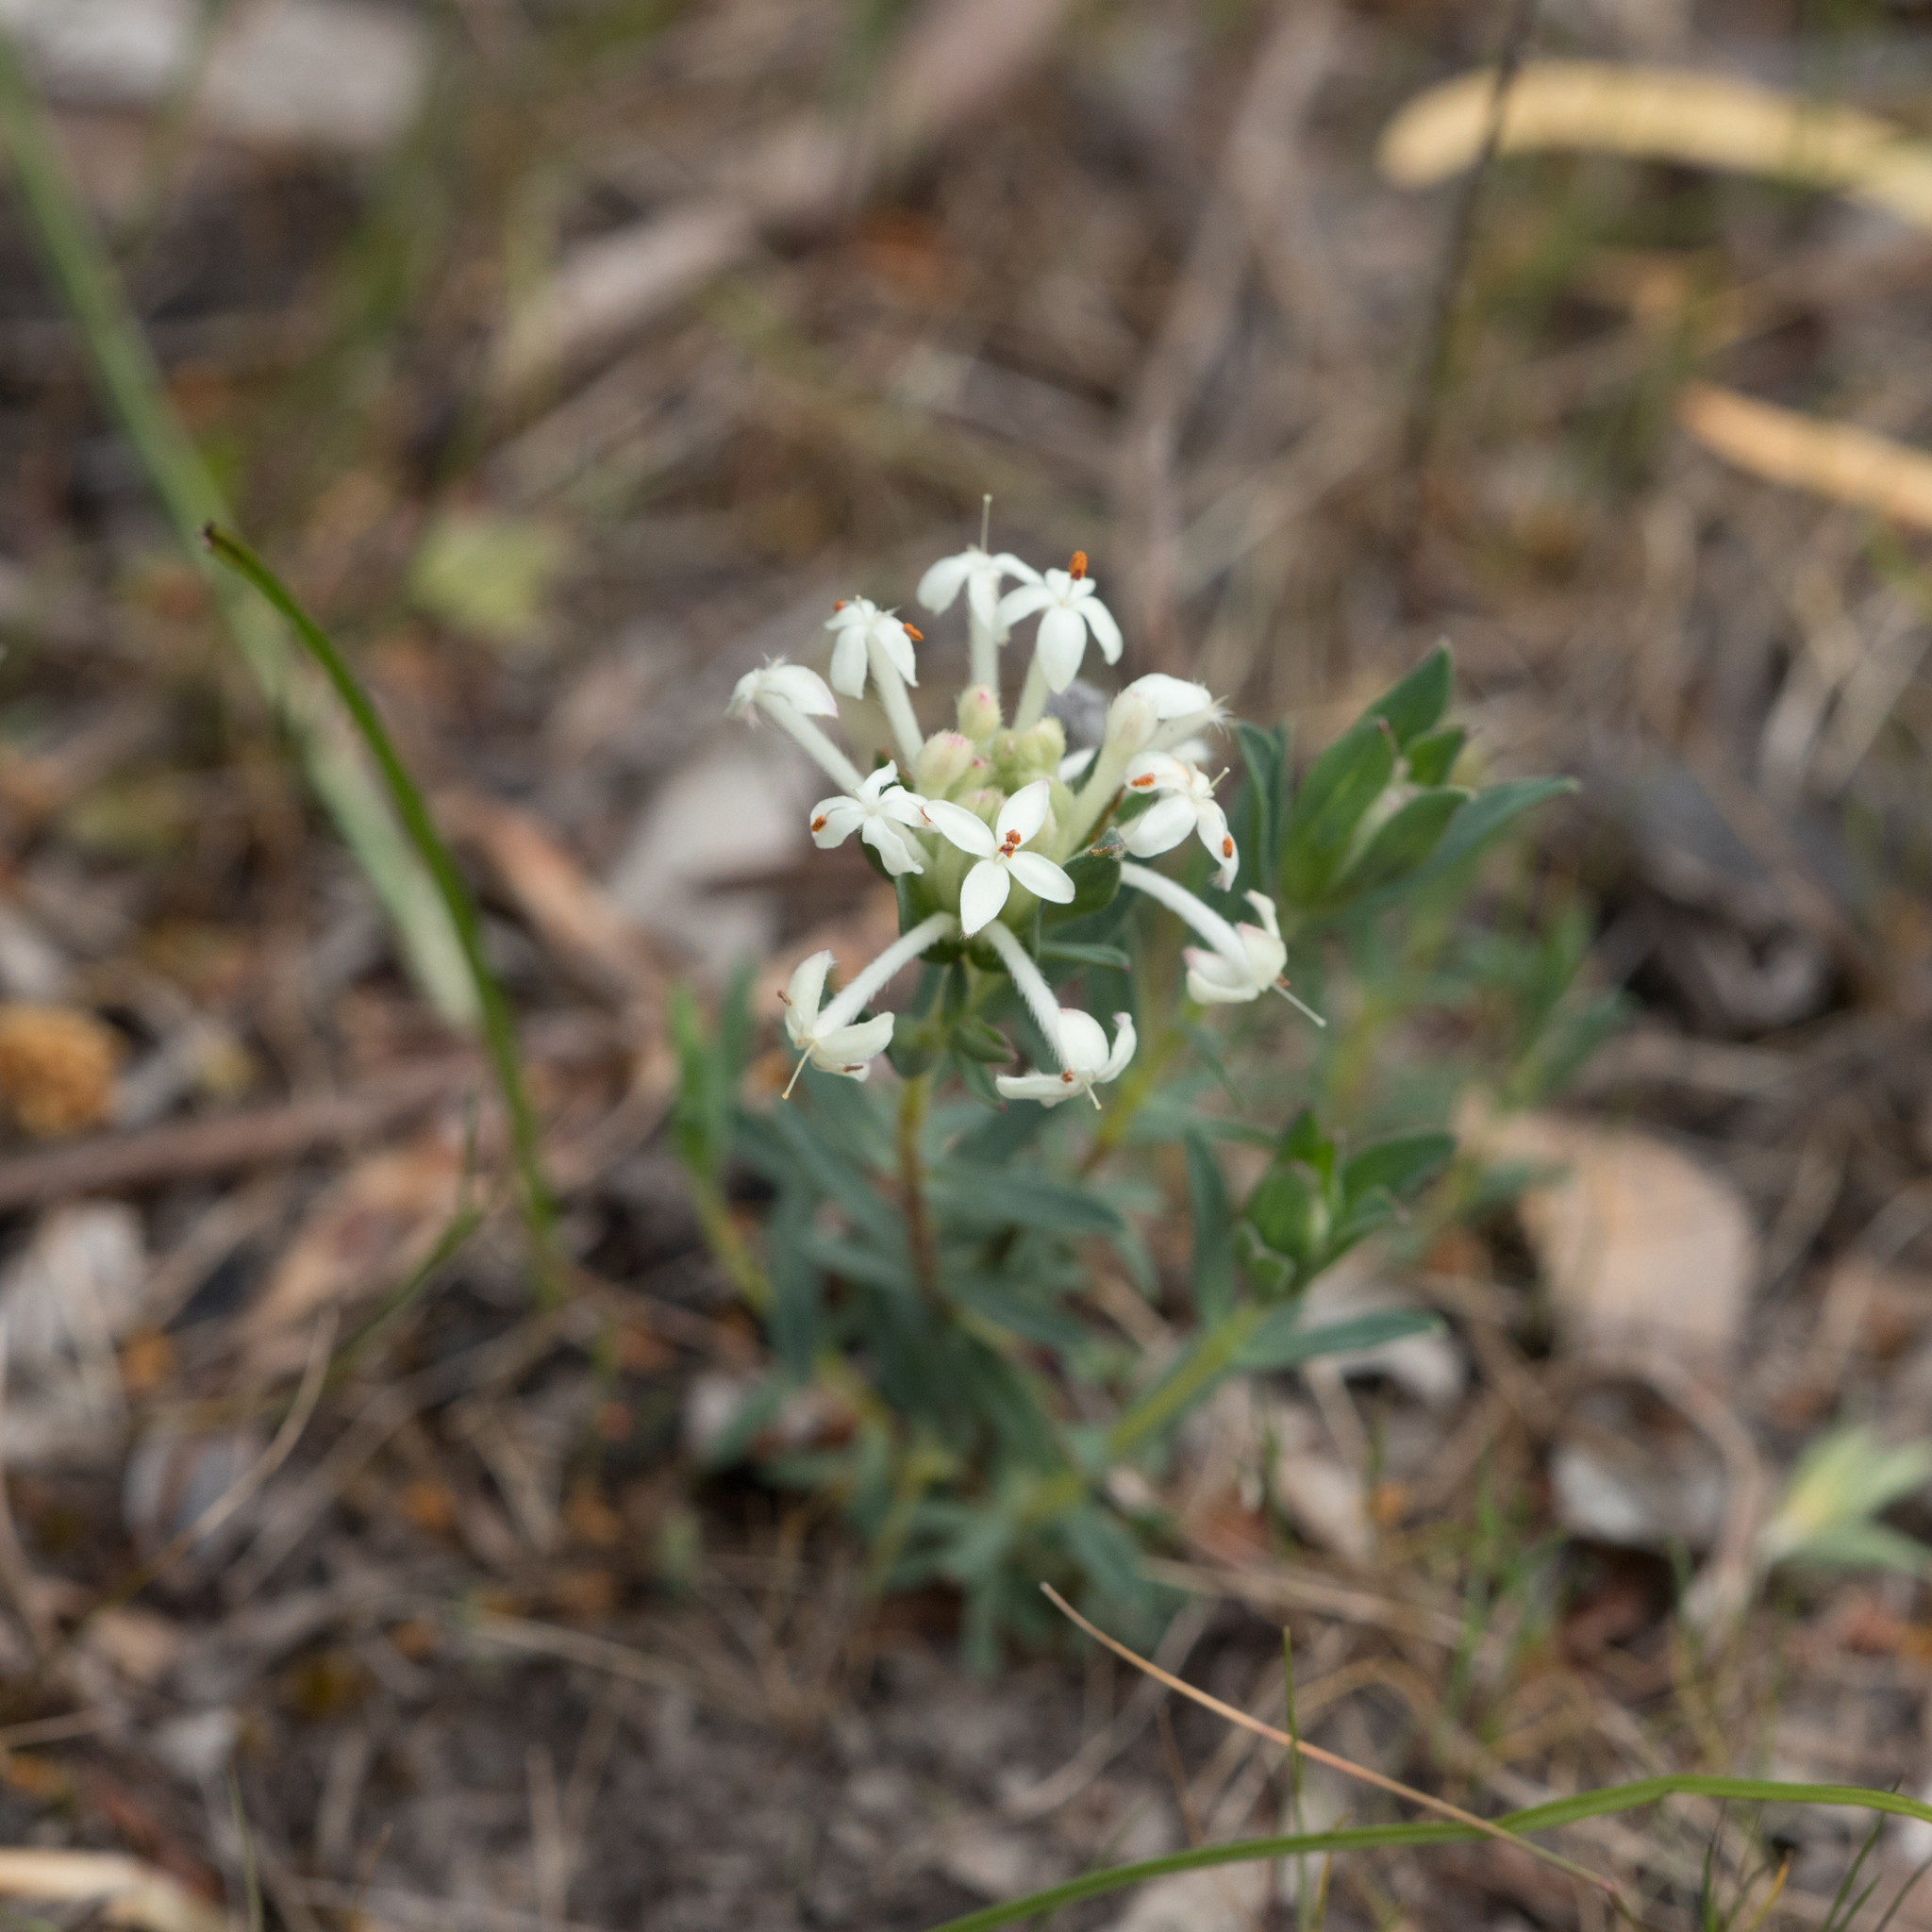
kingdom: Plantae
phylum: Tracheophyta
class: Magnoliopsida
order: Malvales
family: Thymelaeaceae
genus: Pimelea
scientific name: Pimelea humilis
